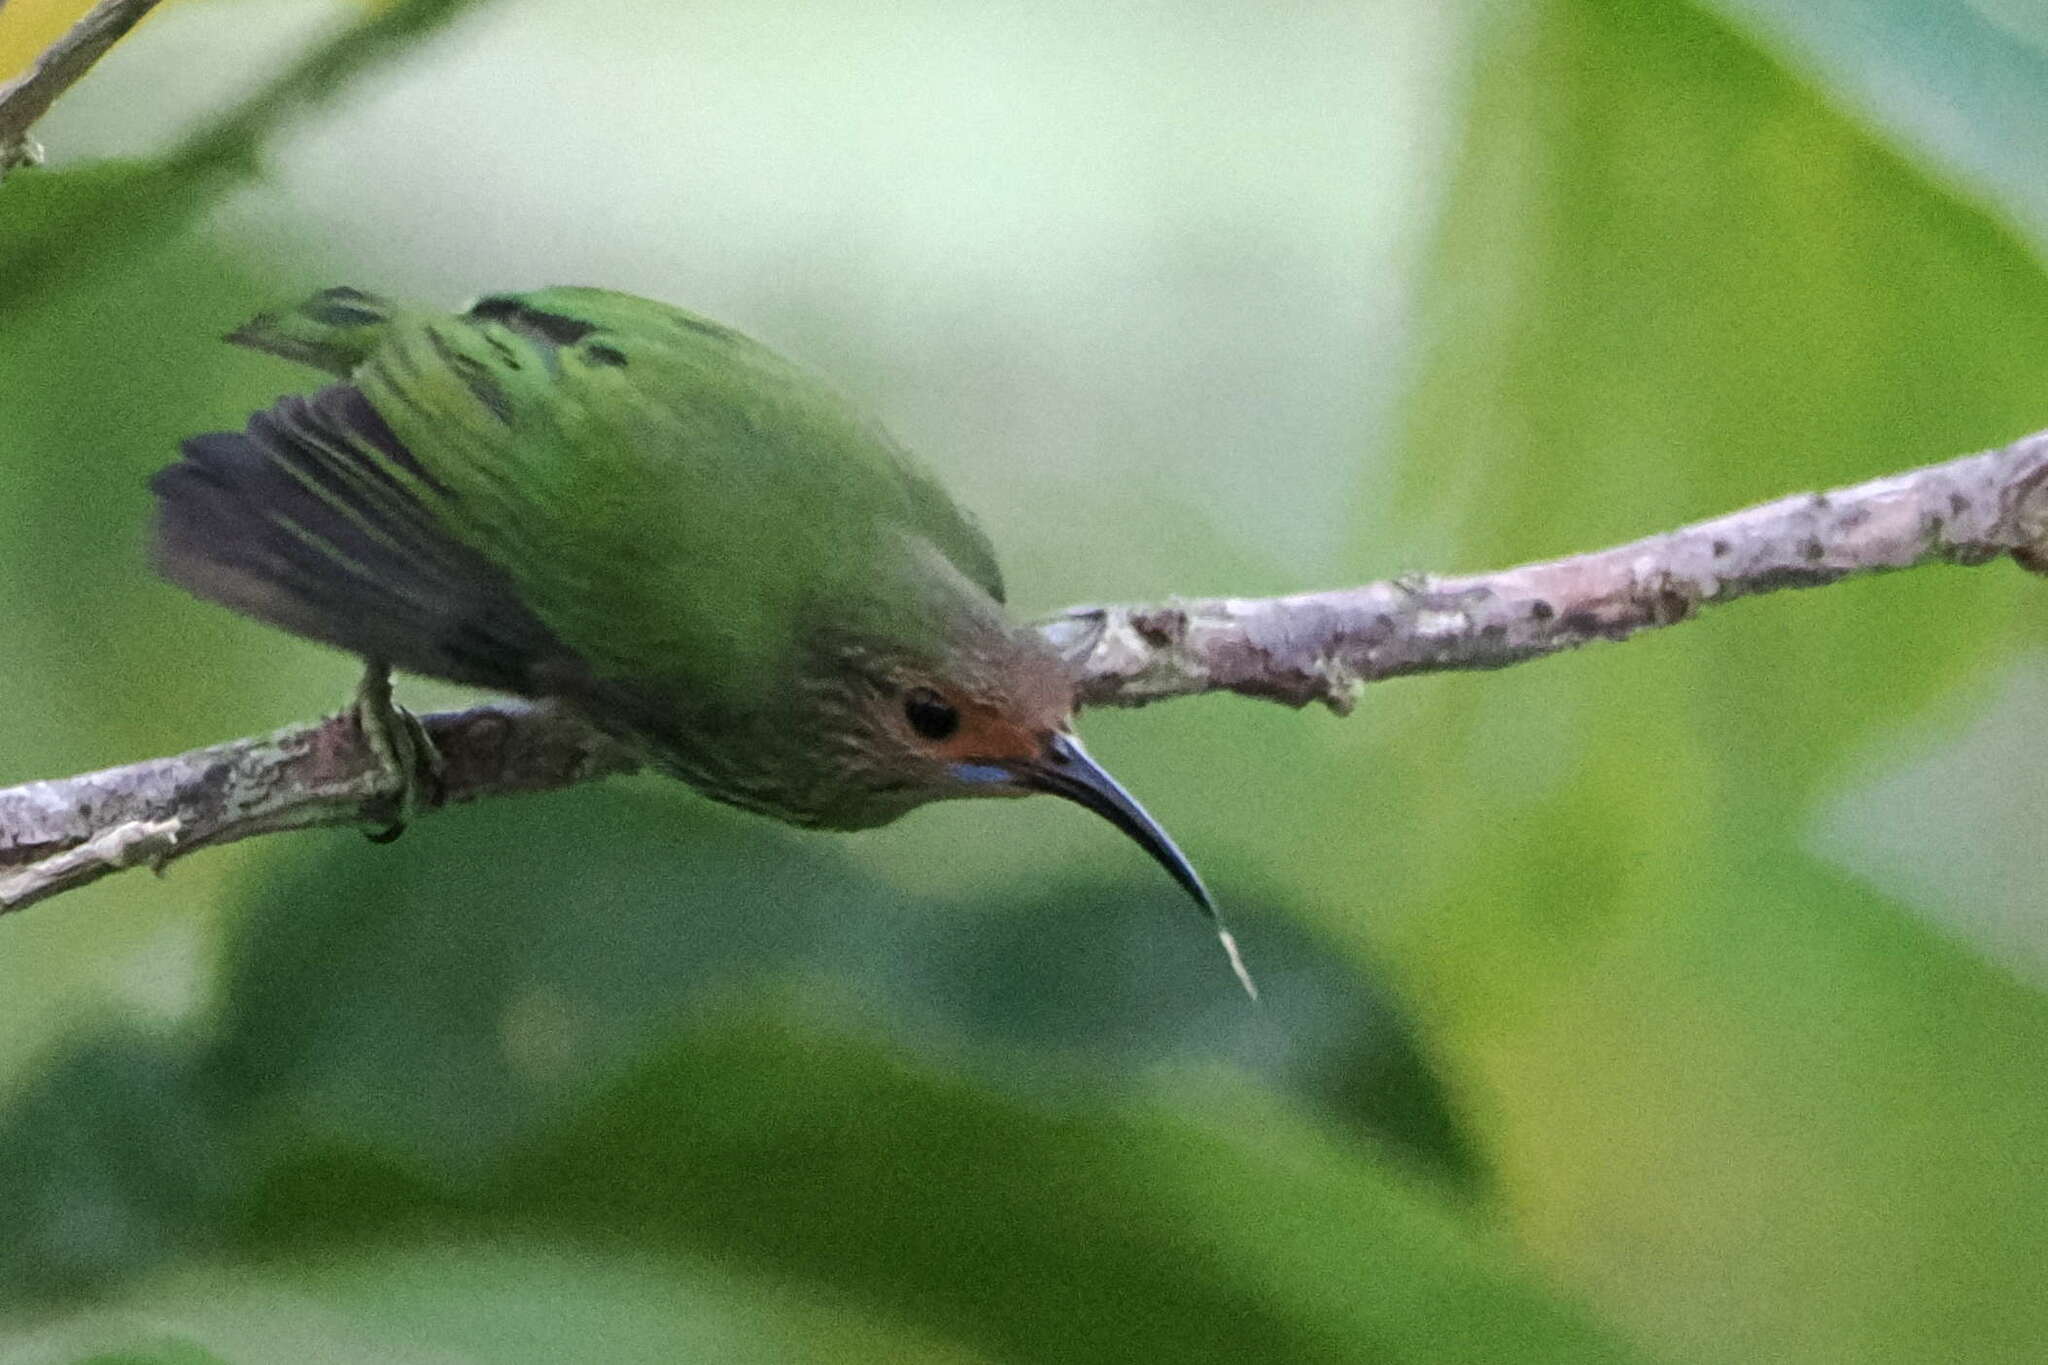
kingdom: Animalia
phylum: Chordata
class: Aves
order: Passeriformes
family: Thraupidae
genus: Cyanerpes
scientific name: Cyanerpes caeruleus
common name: Purple honeycreeper
